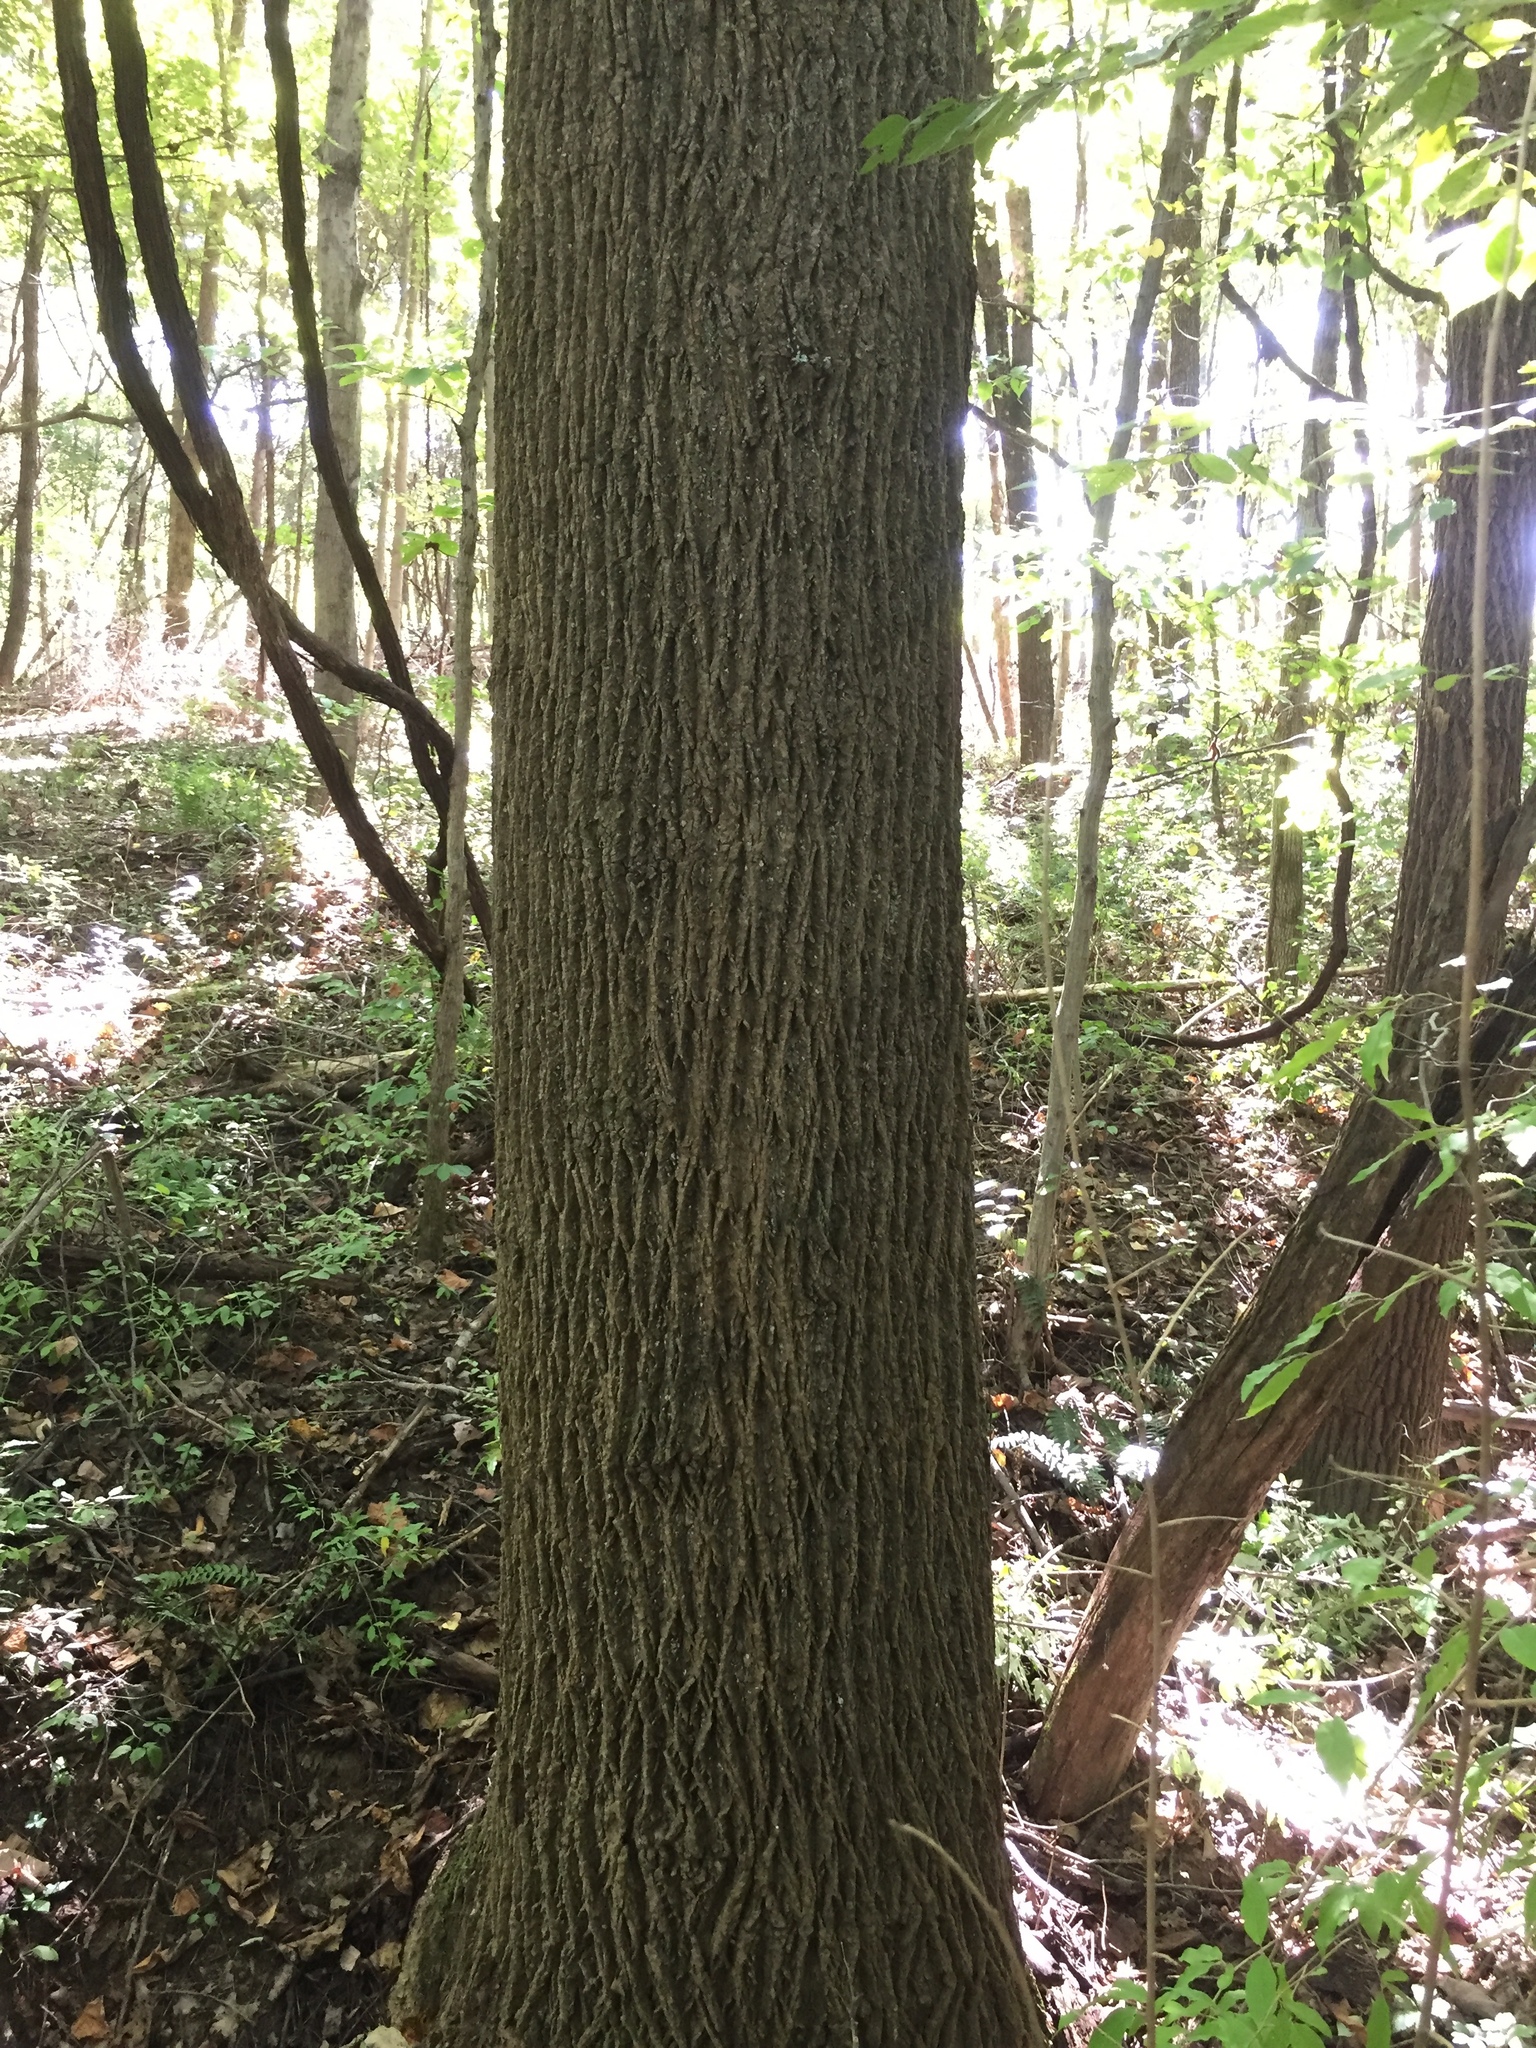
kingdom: Plantae
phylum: Tracheophyta
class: Magnoliopsida
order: Magnoliales
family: Magnoliaceae
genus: Liriodendron
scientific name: Liriodendron tulipifera
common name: Tulip tree
